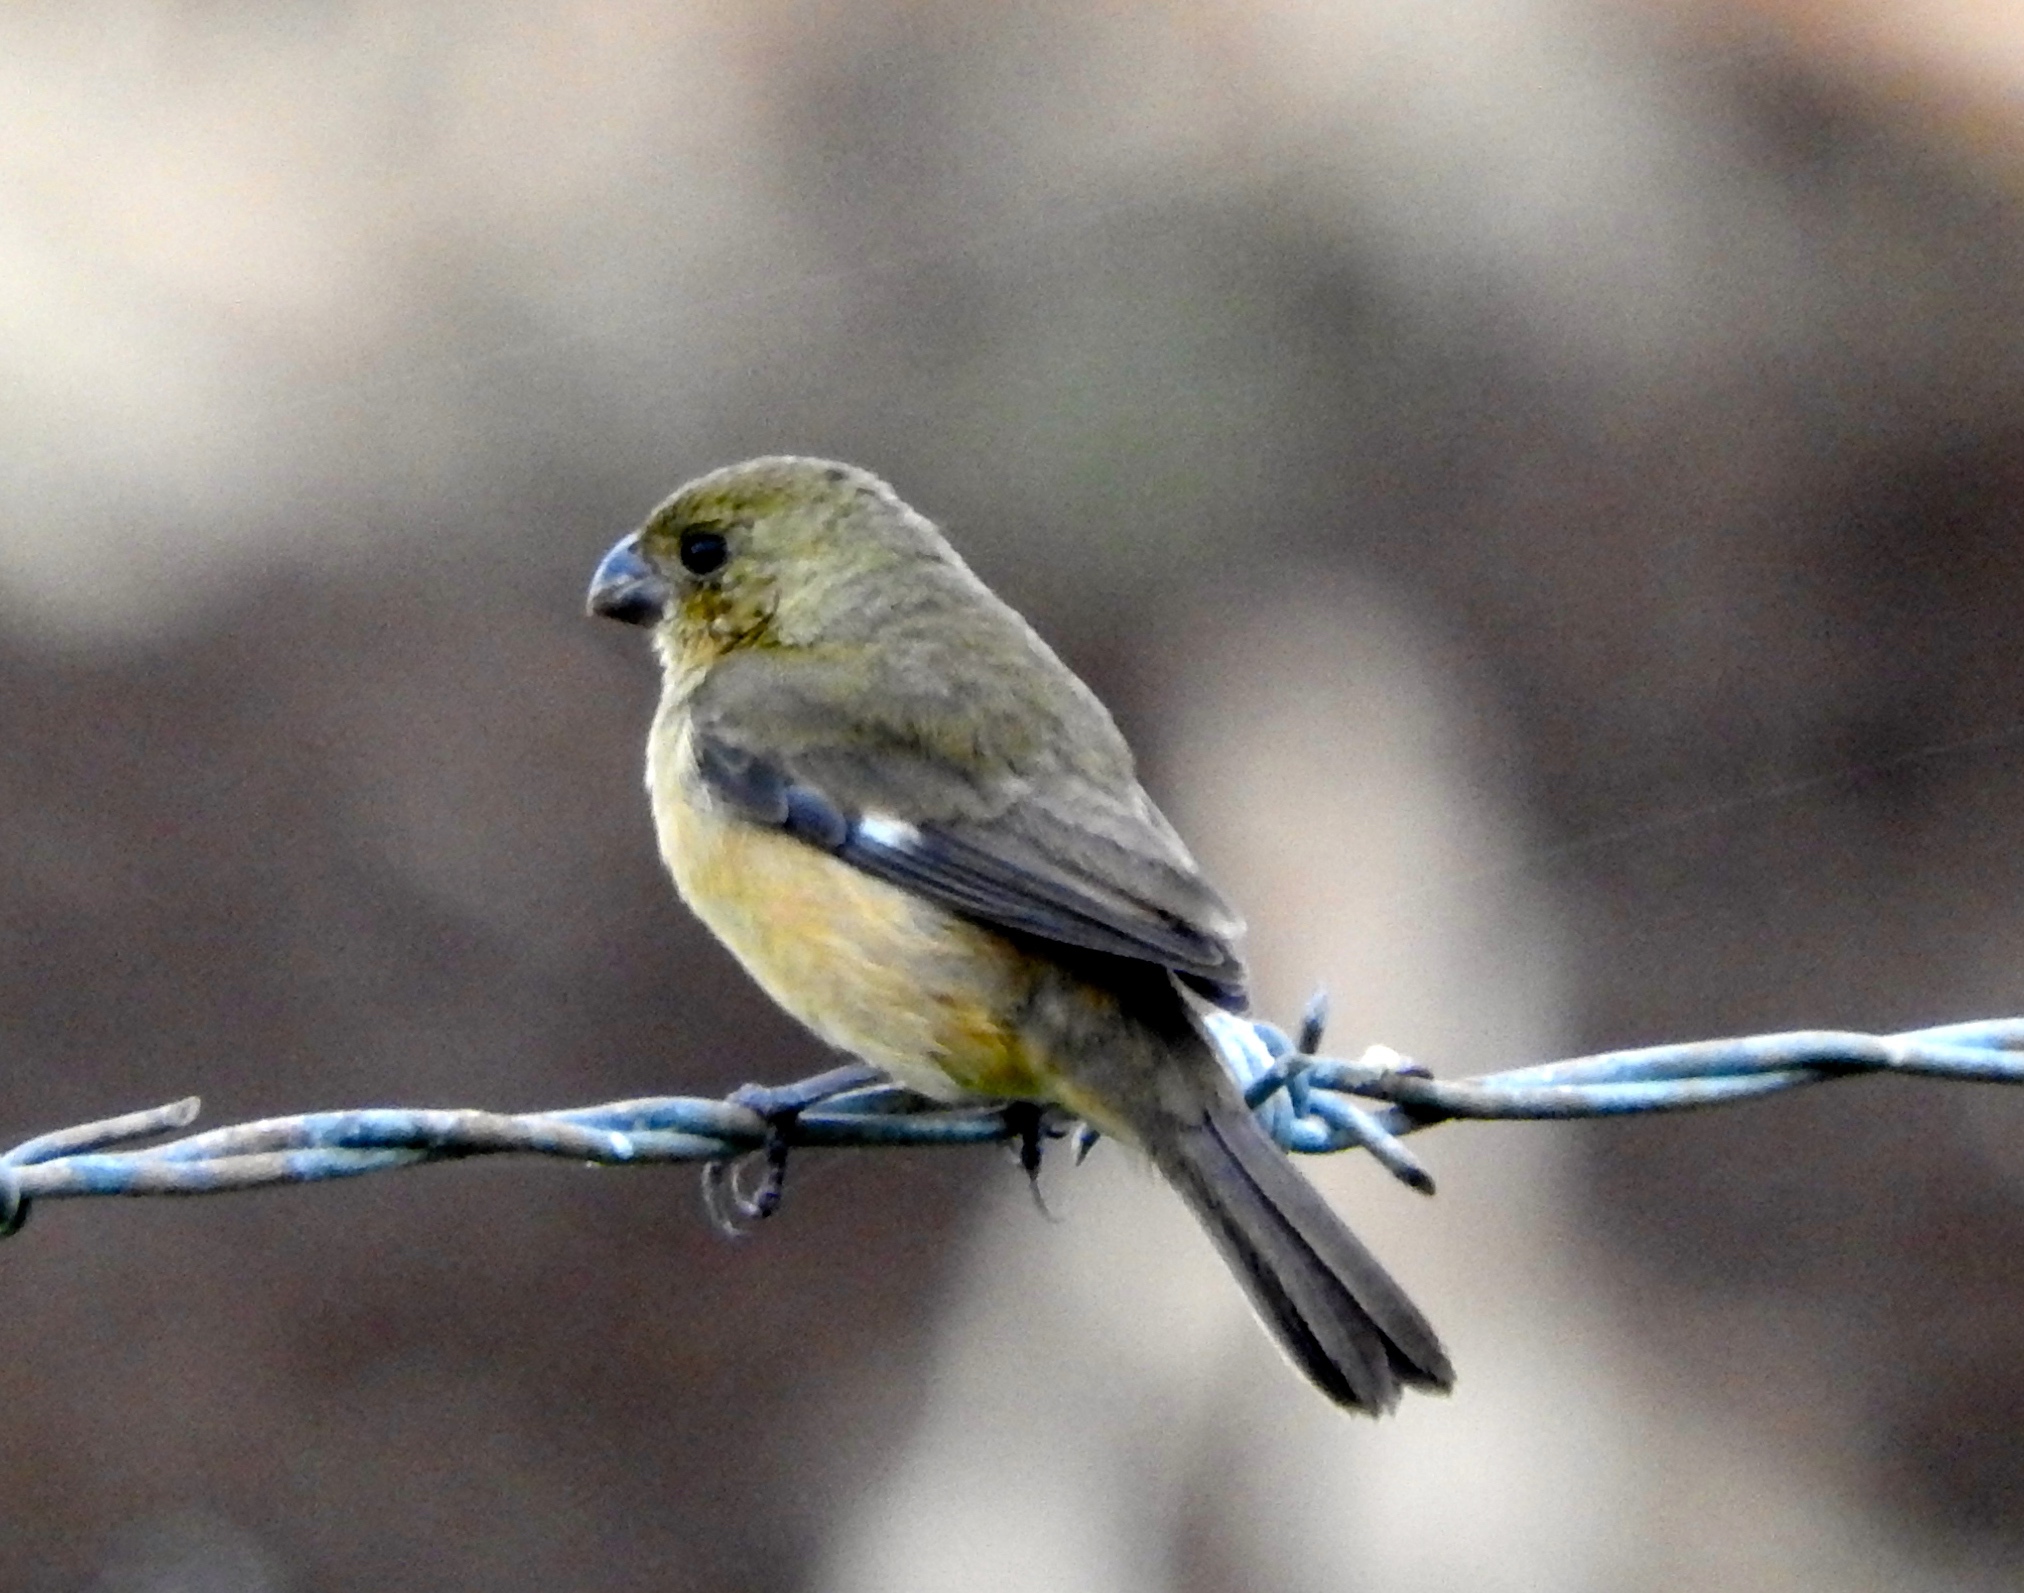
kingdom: Animalia
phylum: Chordata
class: Aves
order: Passeriformes
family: Thraupidae
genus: Sporophila
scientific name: Sporophila torqueola
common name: White-collared seedeater
